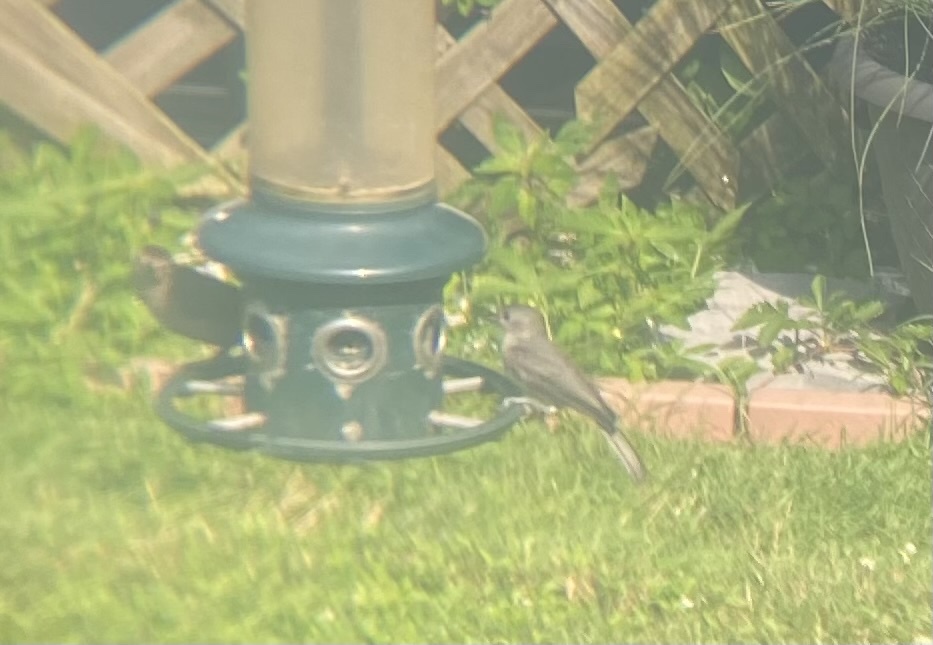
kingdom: Animalia
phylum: Chordata
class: Aves
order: Passeriformes
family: Mimidae
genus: Dumetella
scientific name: Dumetella carolinensis
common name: Gray catbird
